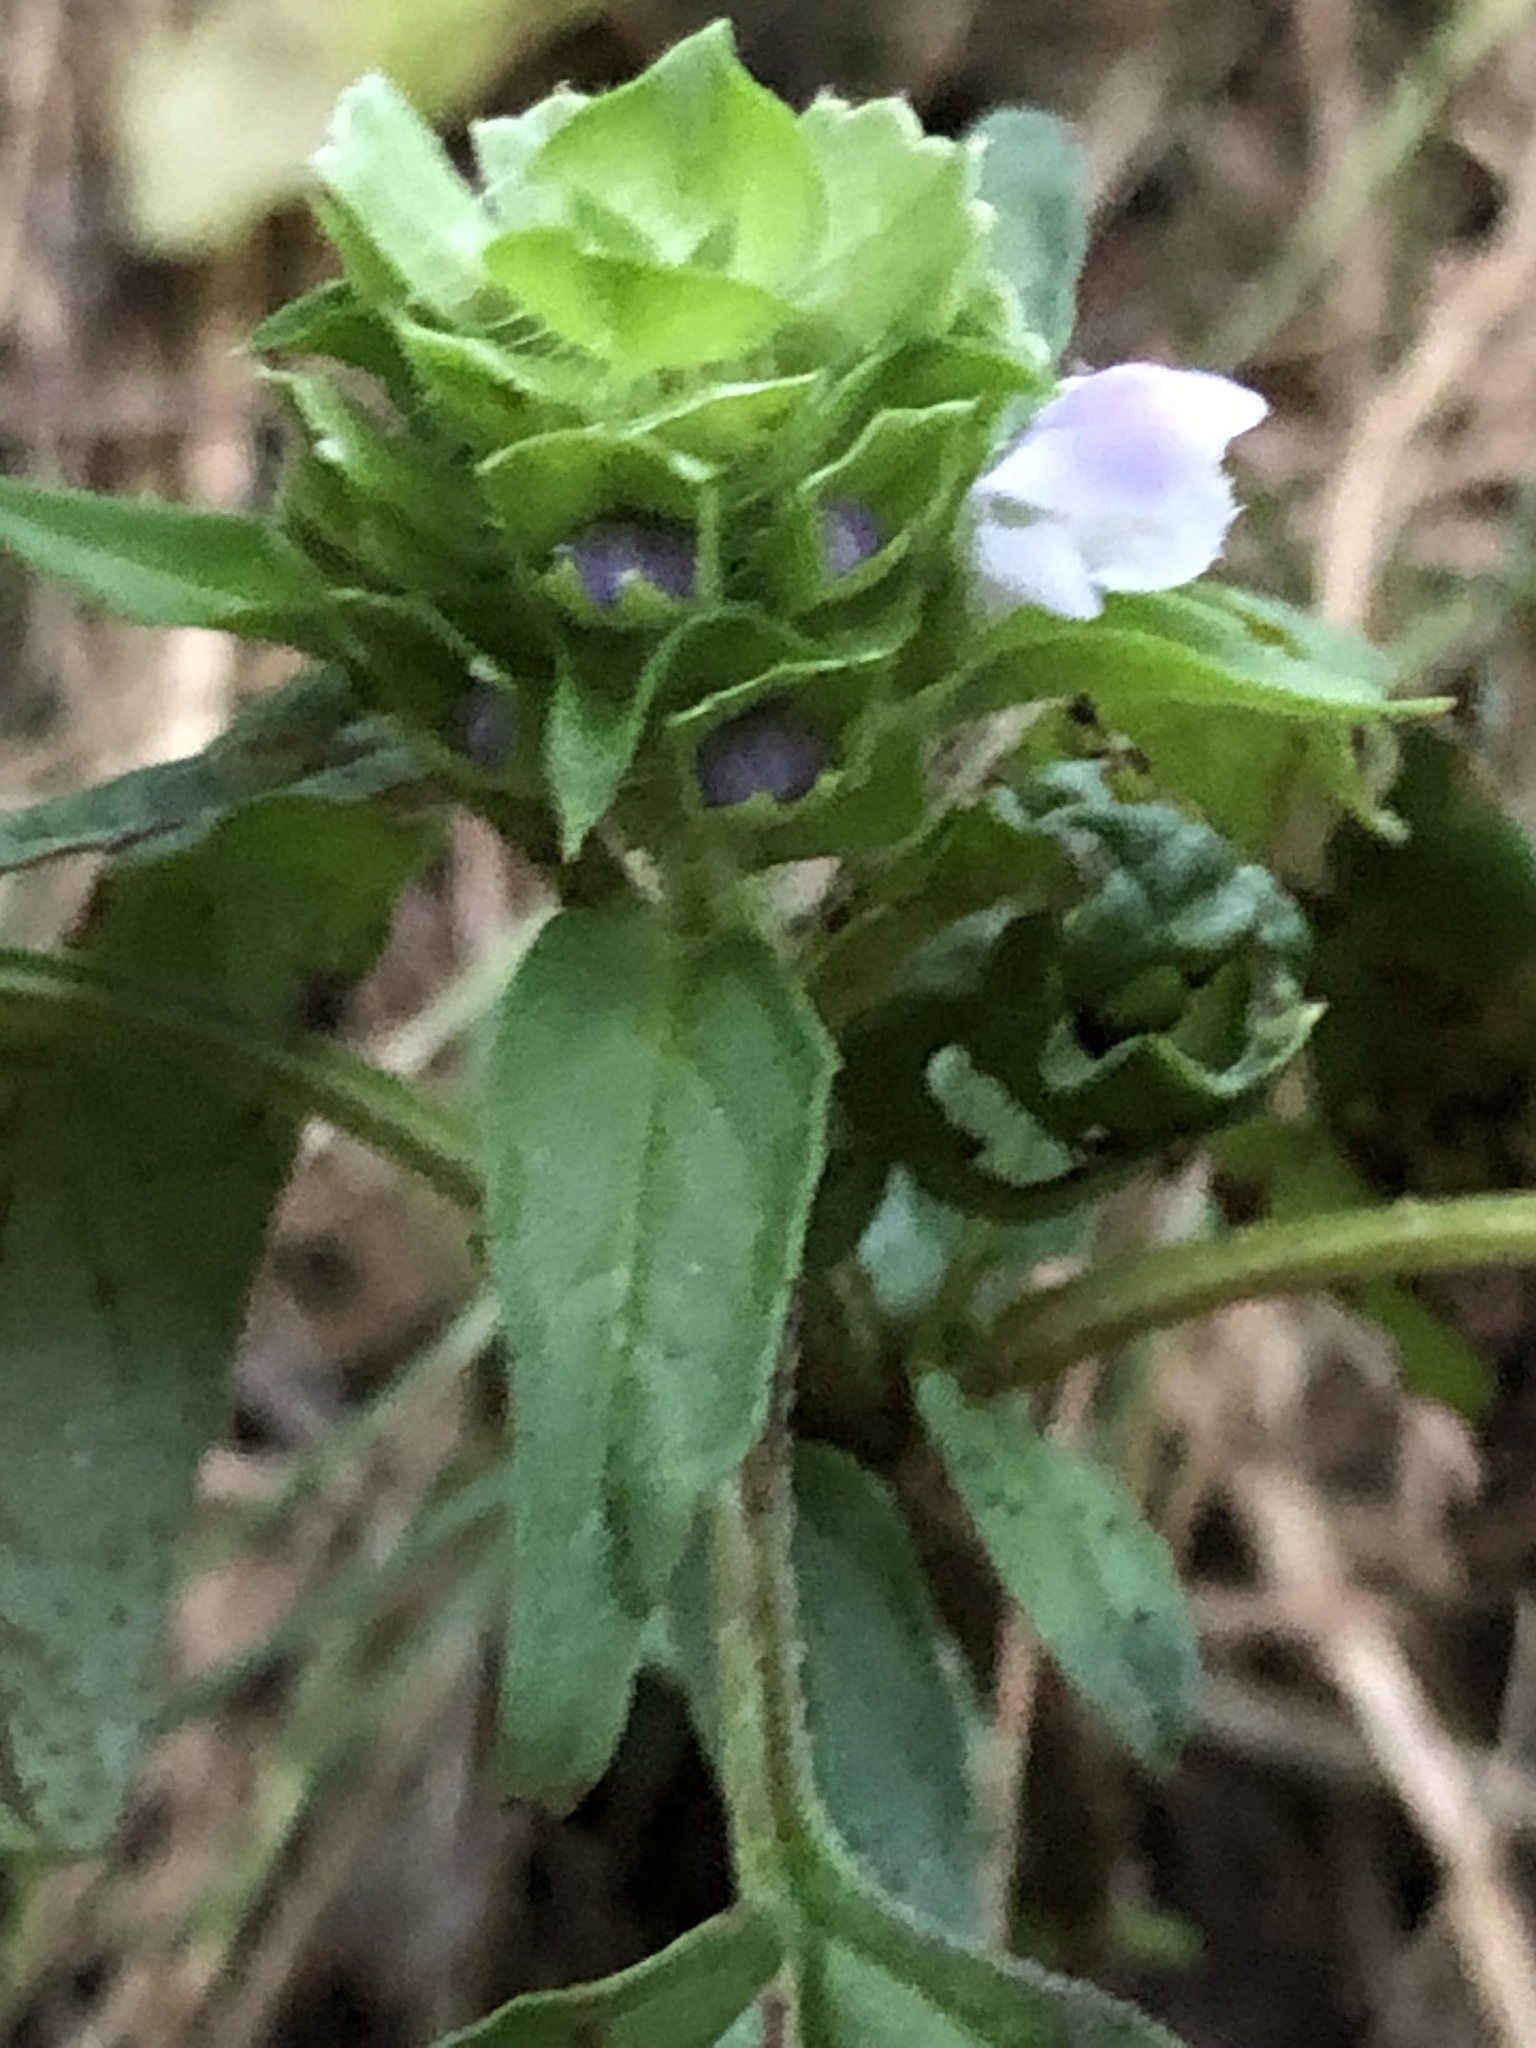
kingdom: Plantae
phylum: Tracheophyta
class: Magnoliopsida
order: Lamiales
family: Lamiaceae
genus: Prunella
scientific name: Prunella vulgaris
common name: Heal-all
